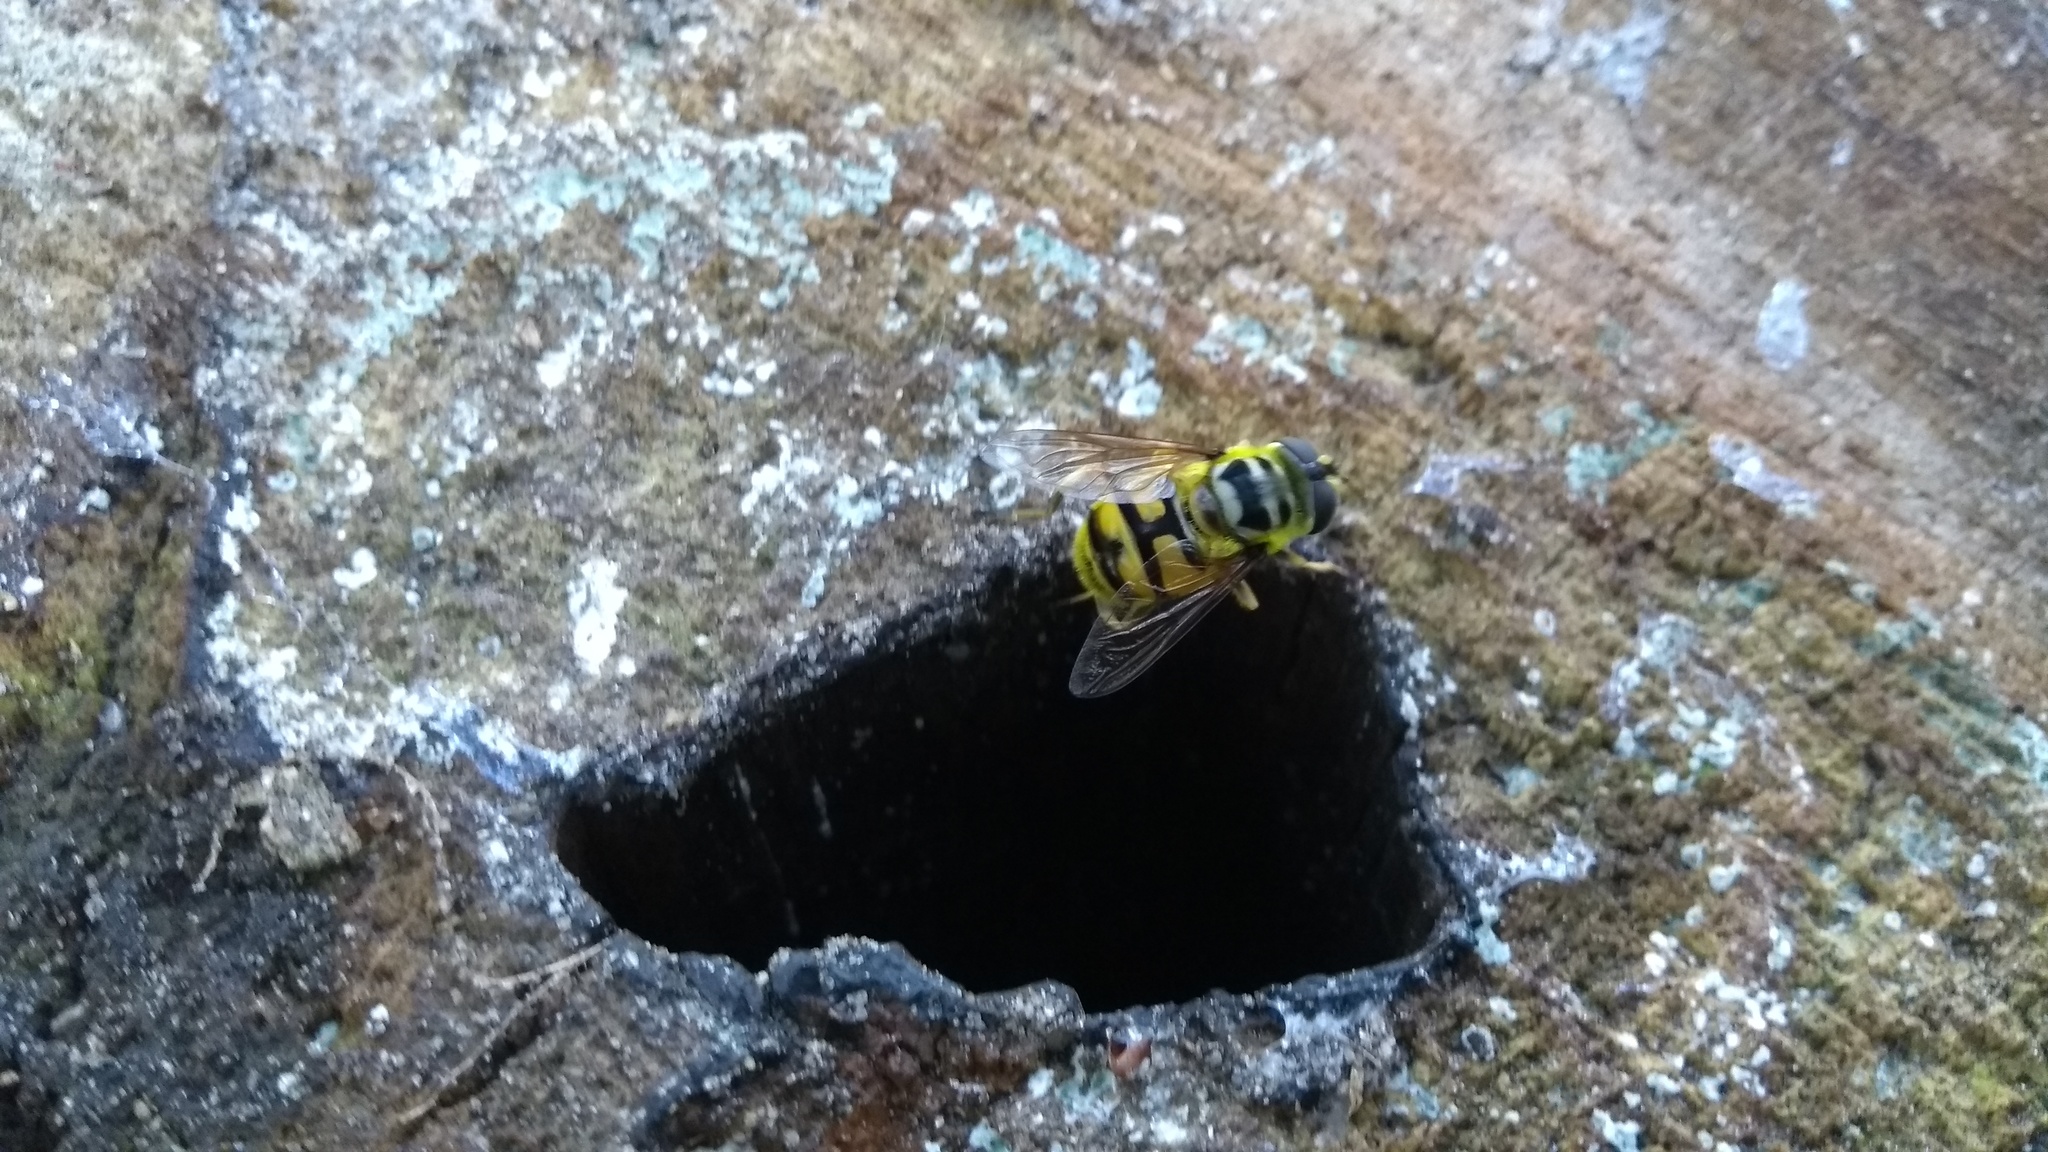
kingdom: Animalia
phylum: Arthropoda
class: Insecta
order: Diptera
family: Syrphidae
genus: Myathropa
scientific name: Myathropa florea
